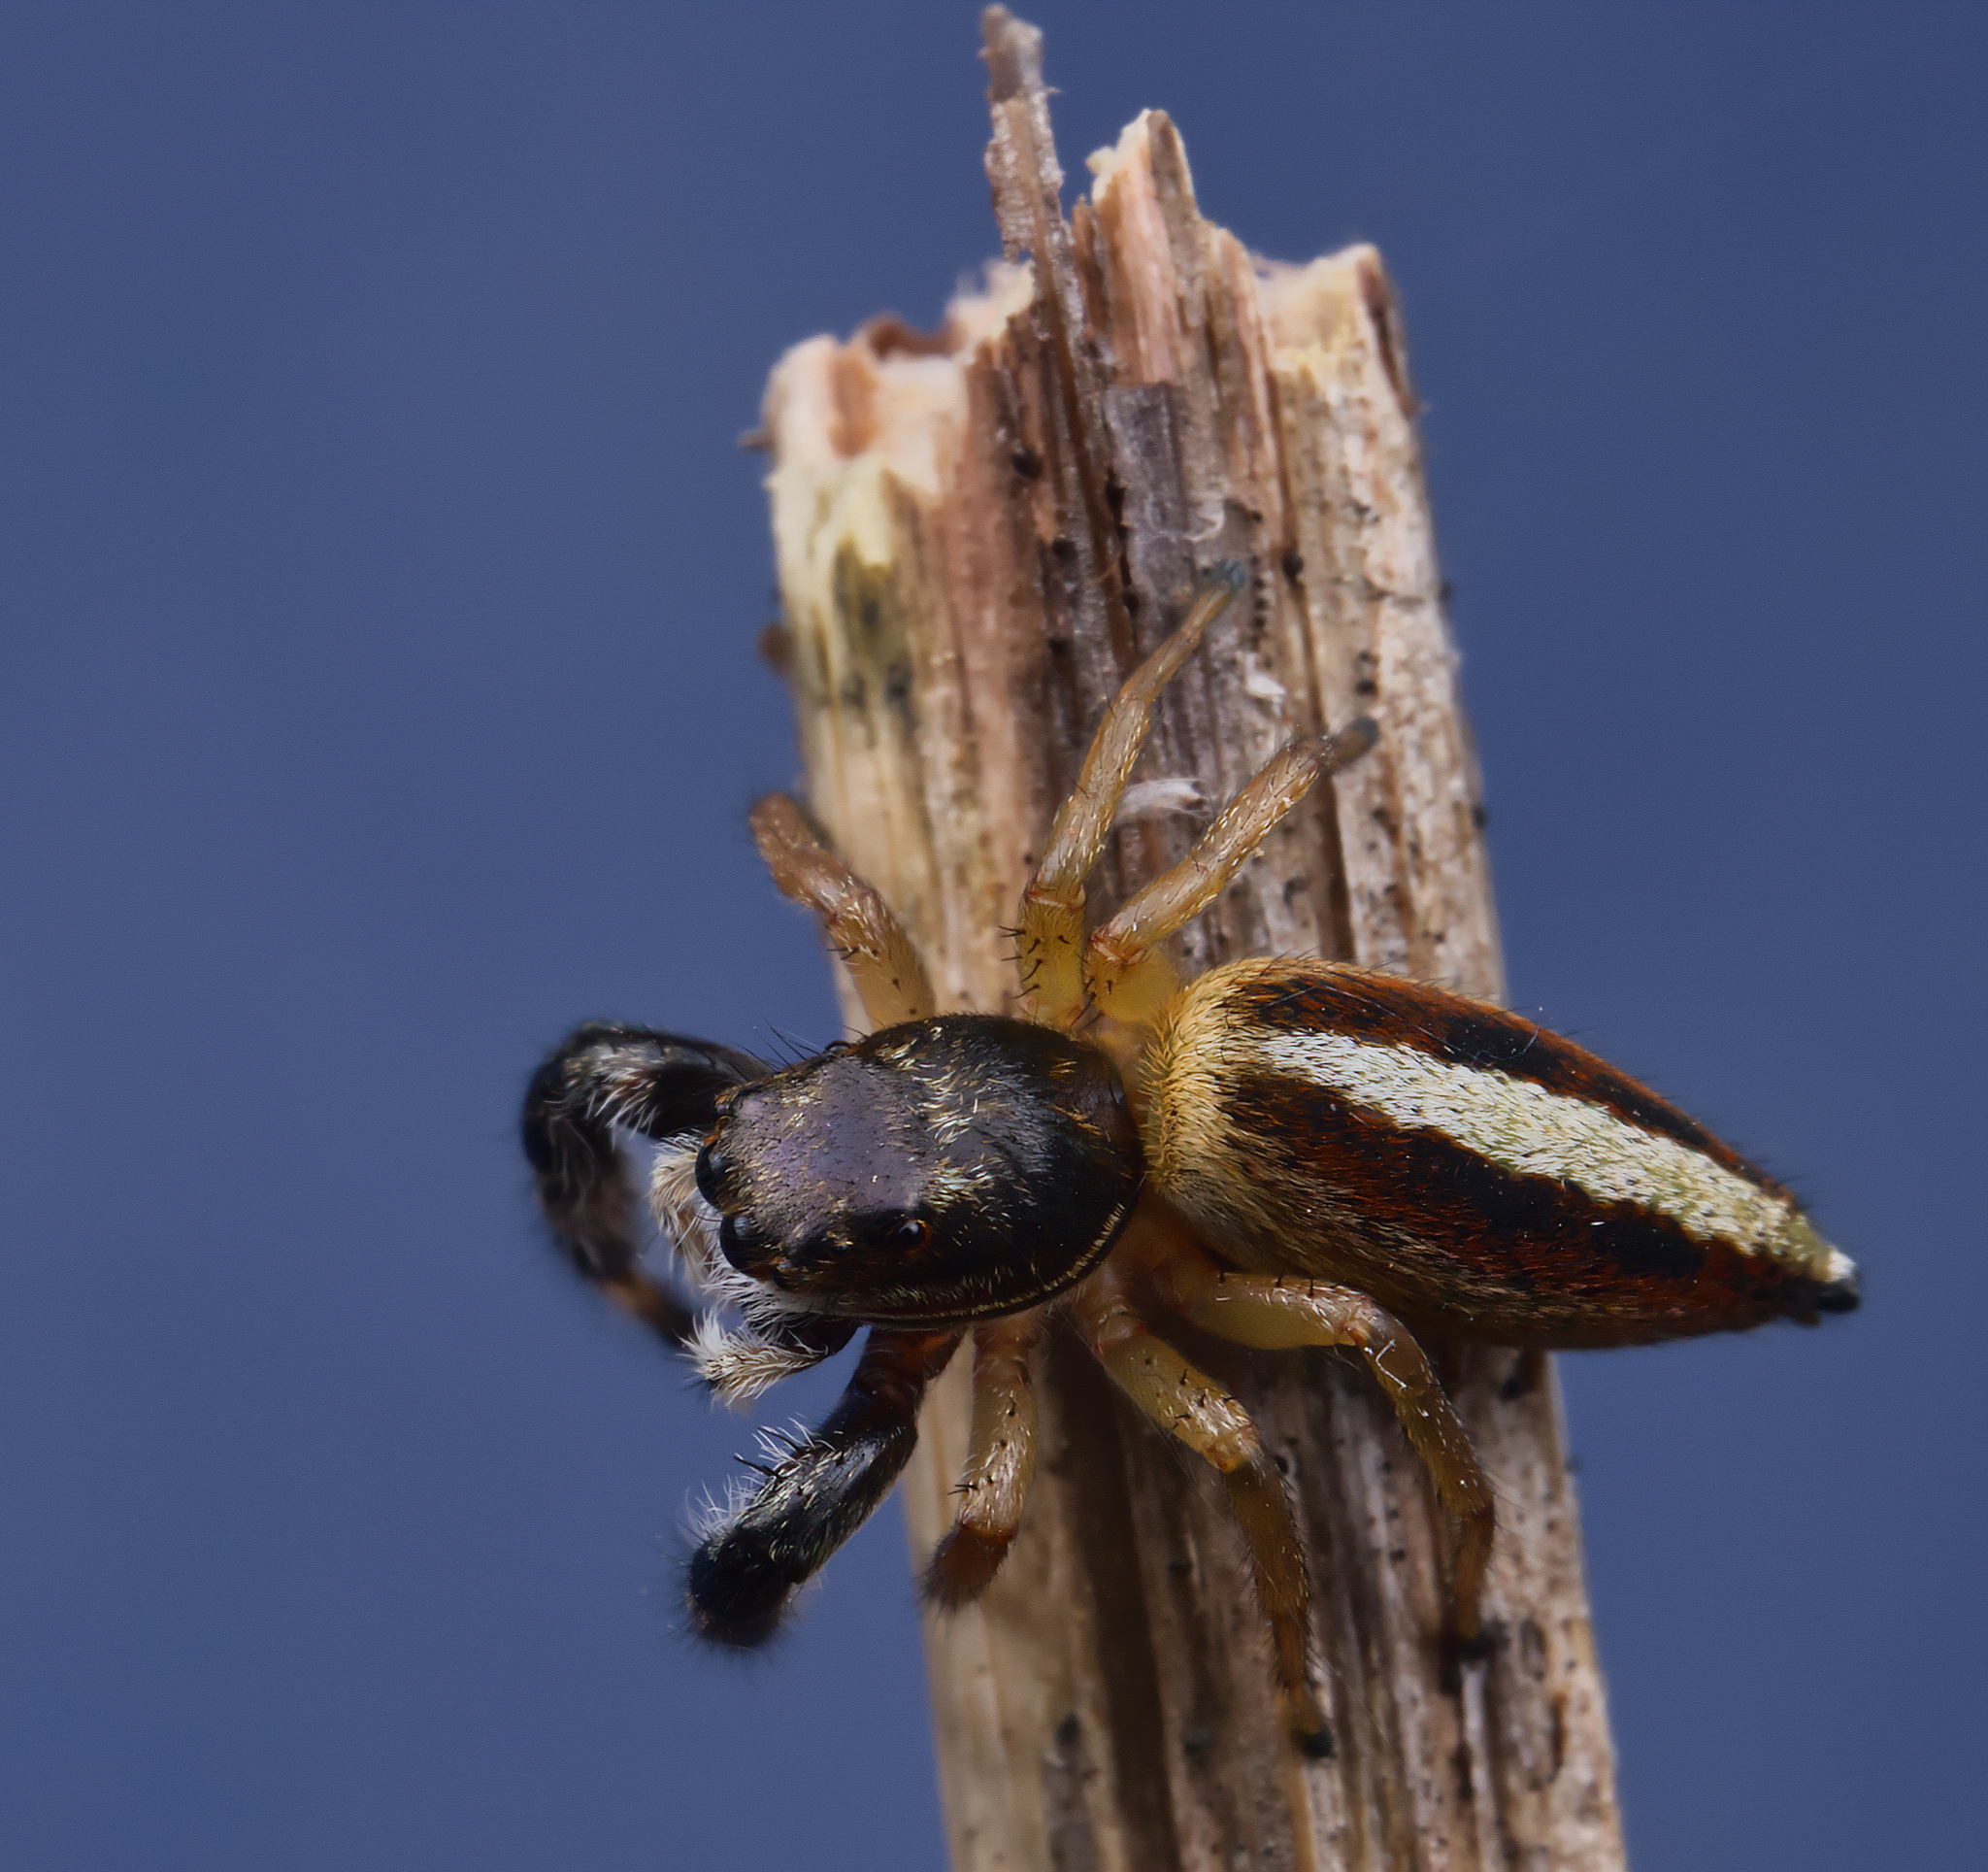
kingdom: Animalia
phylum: Arthropoda
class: Arachnida
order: Araneae
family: Salticidae
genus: Marpissa
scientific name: Marpissa formosa
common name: Short-bellied slender jumping spider
